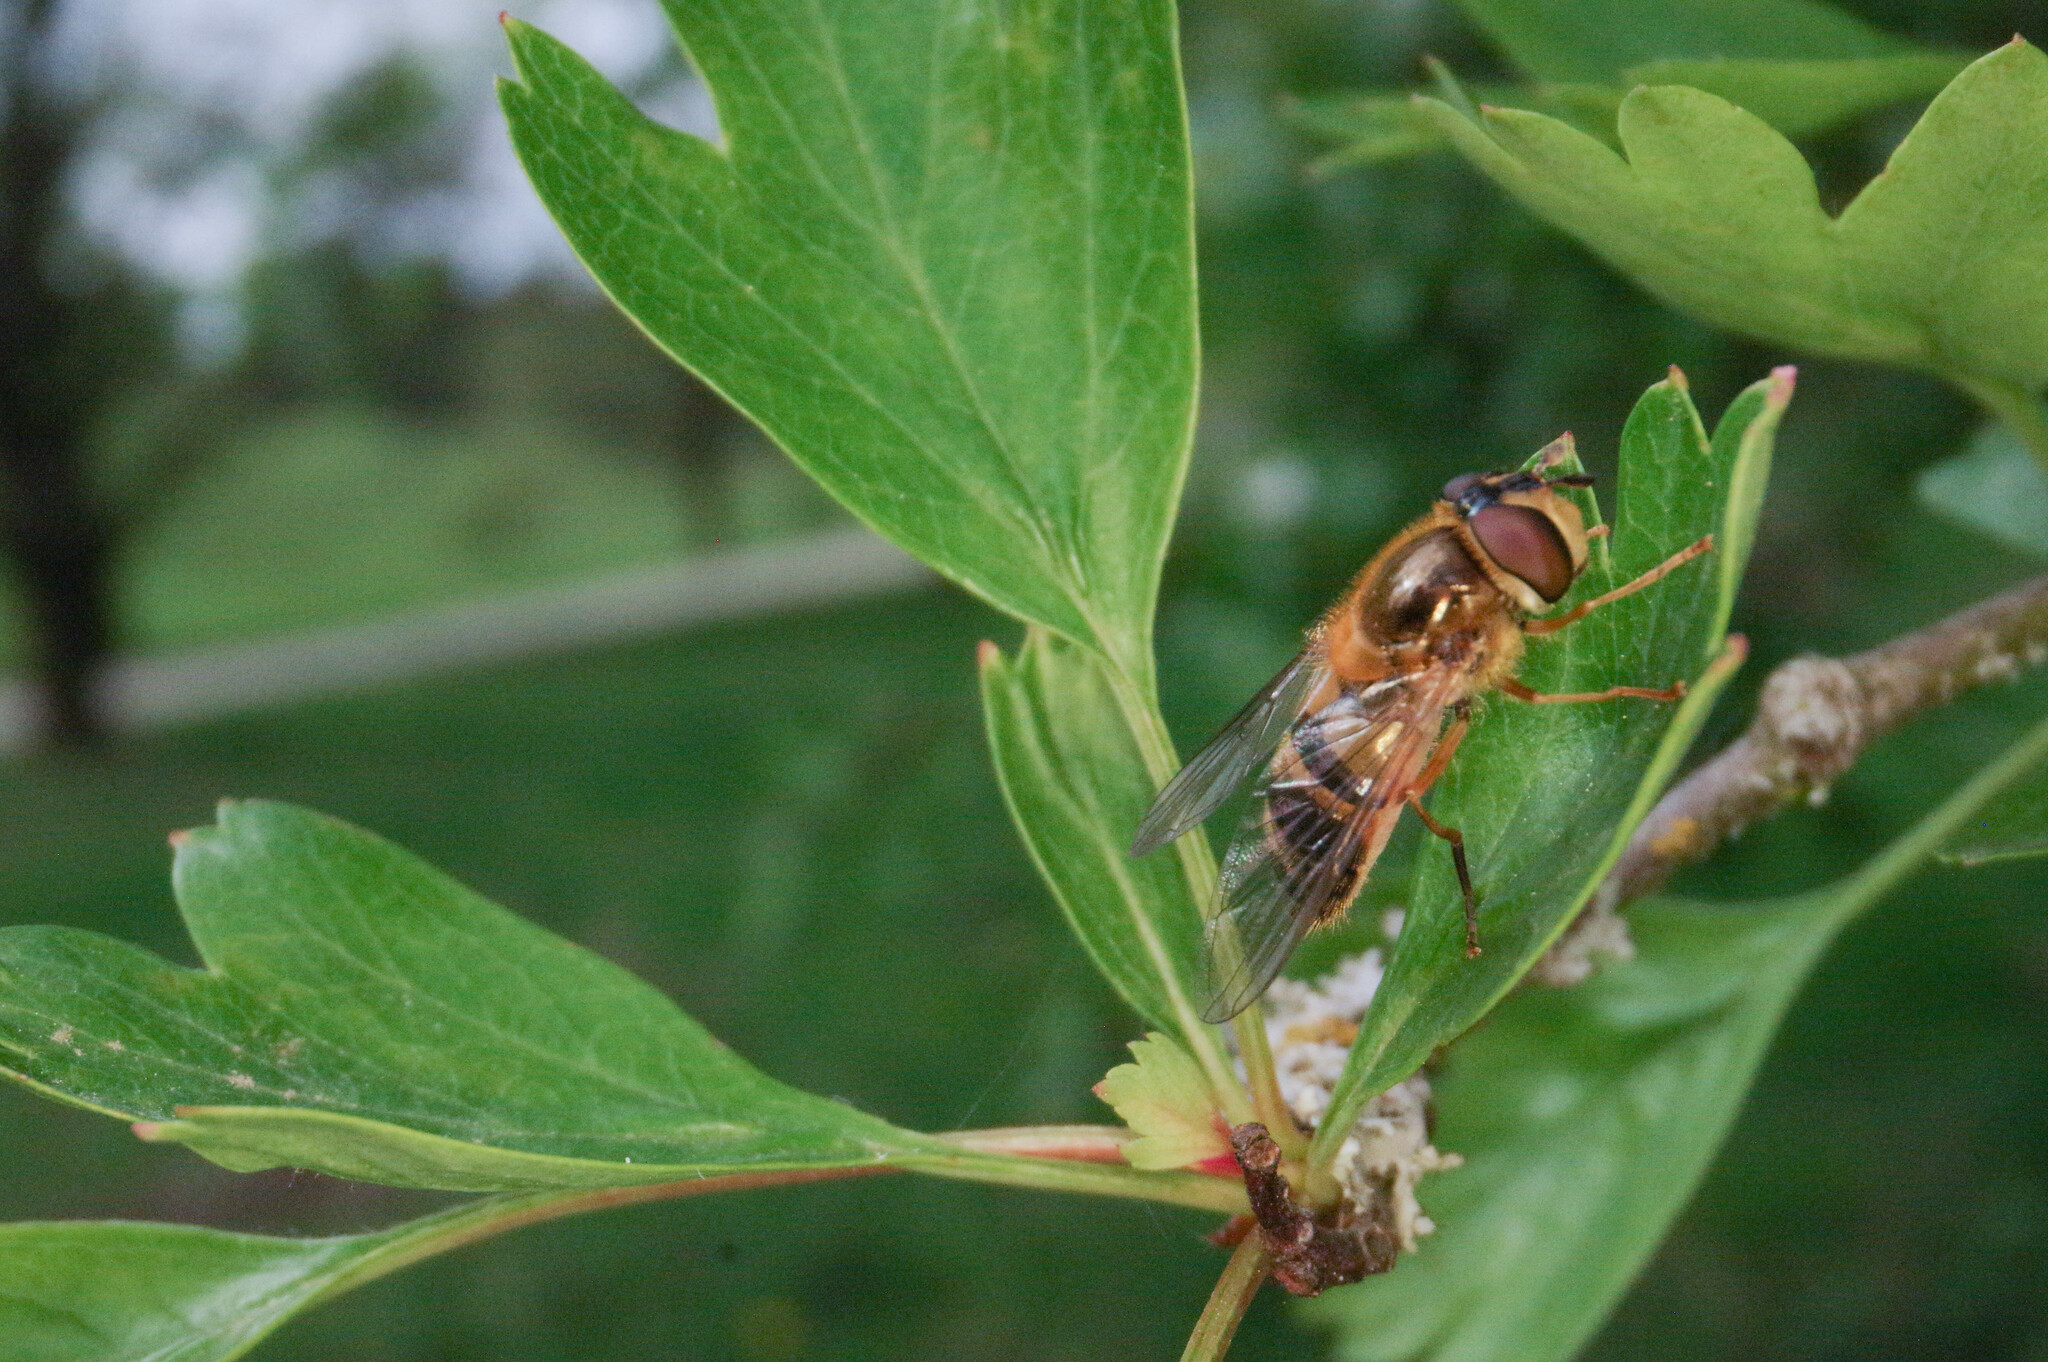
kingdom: Animalia
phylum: Arthropoda
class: Insecta
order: Diptera
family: Syrphidae
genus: Epistrophe
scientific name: Epistrophe eligans
